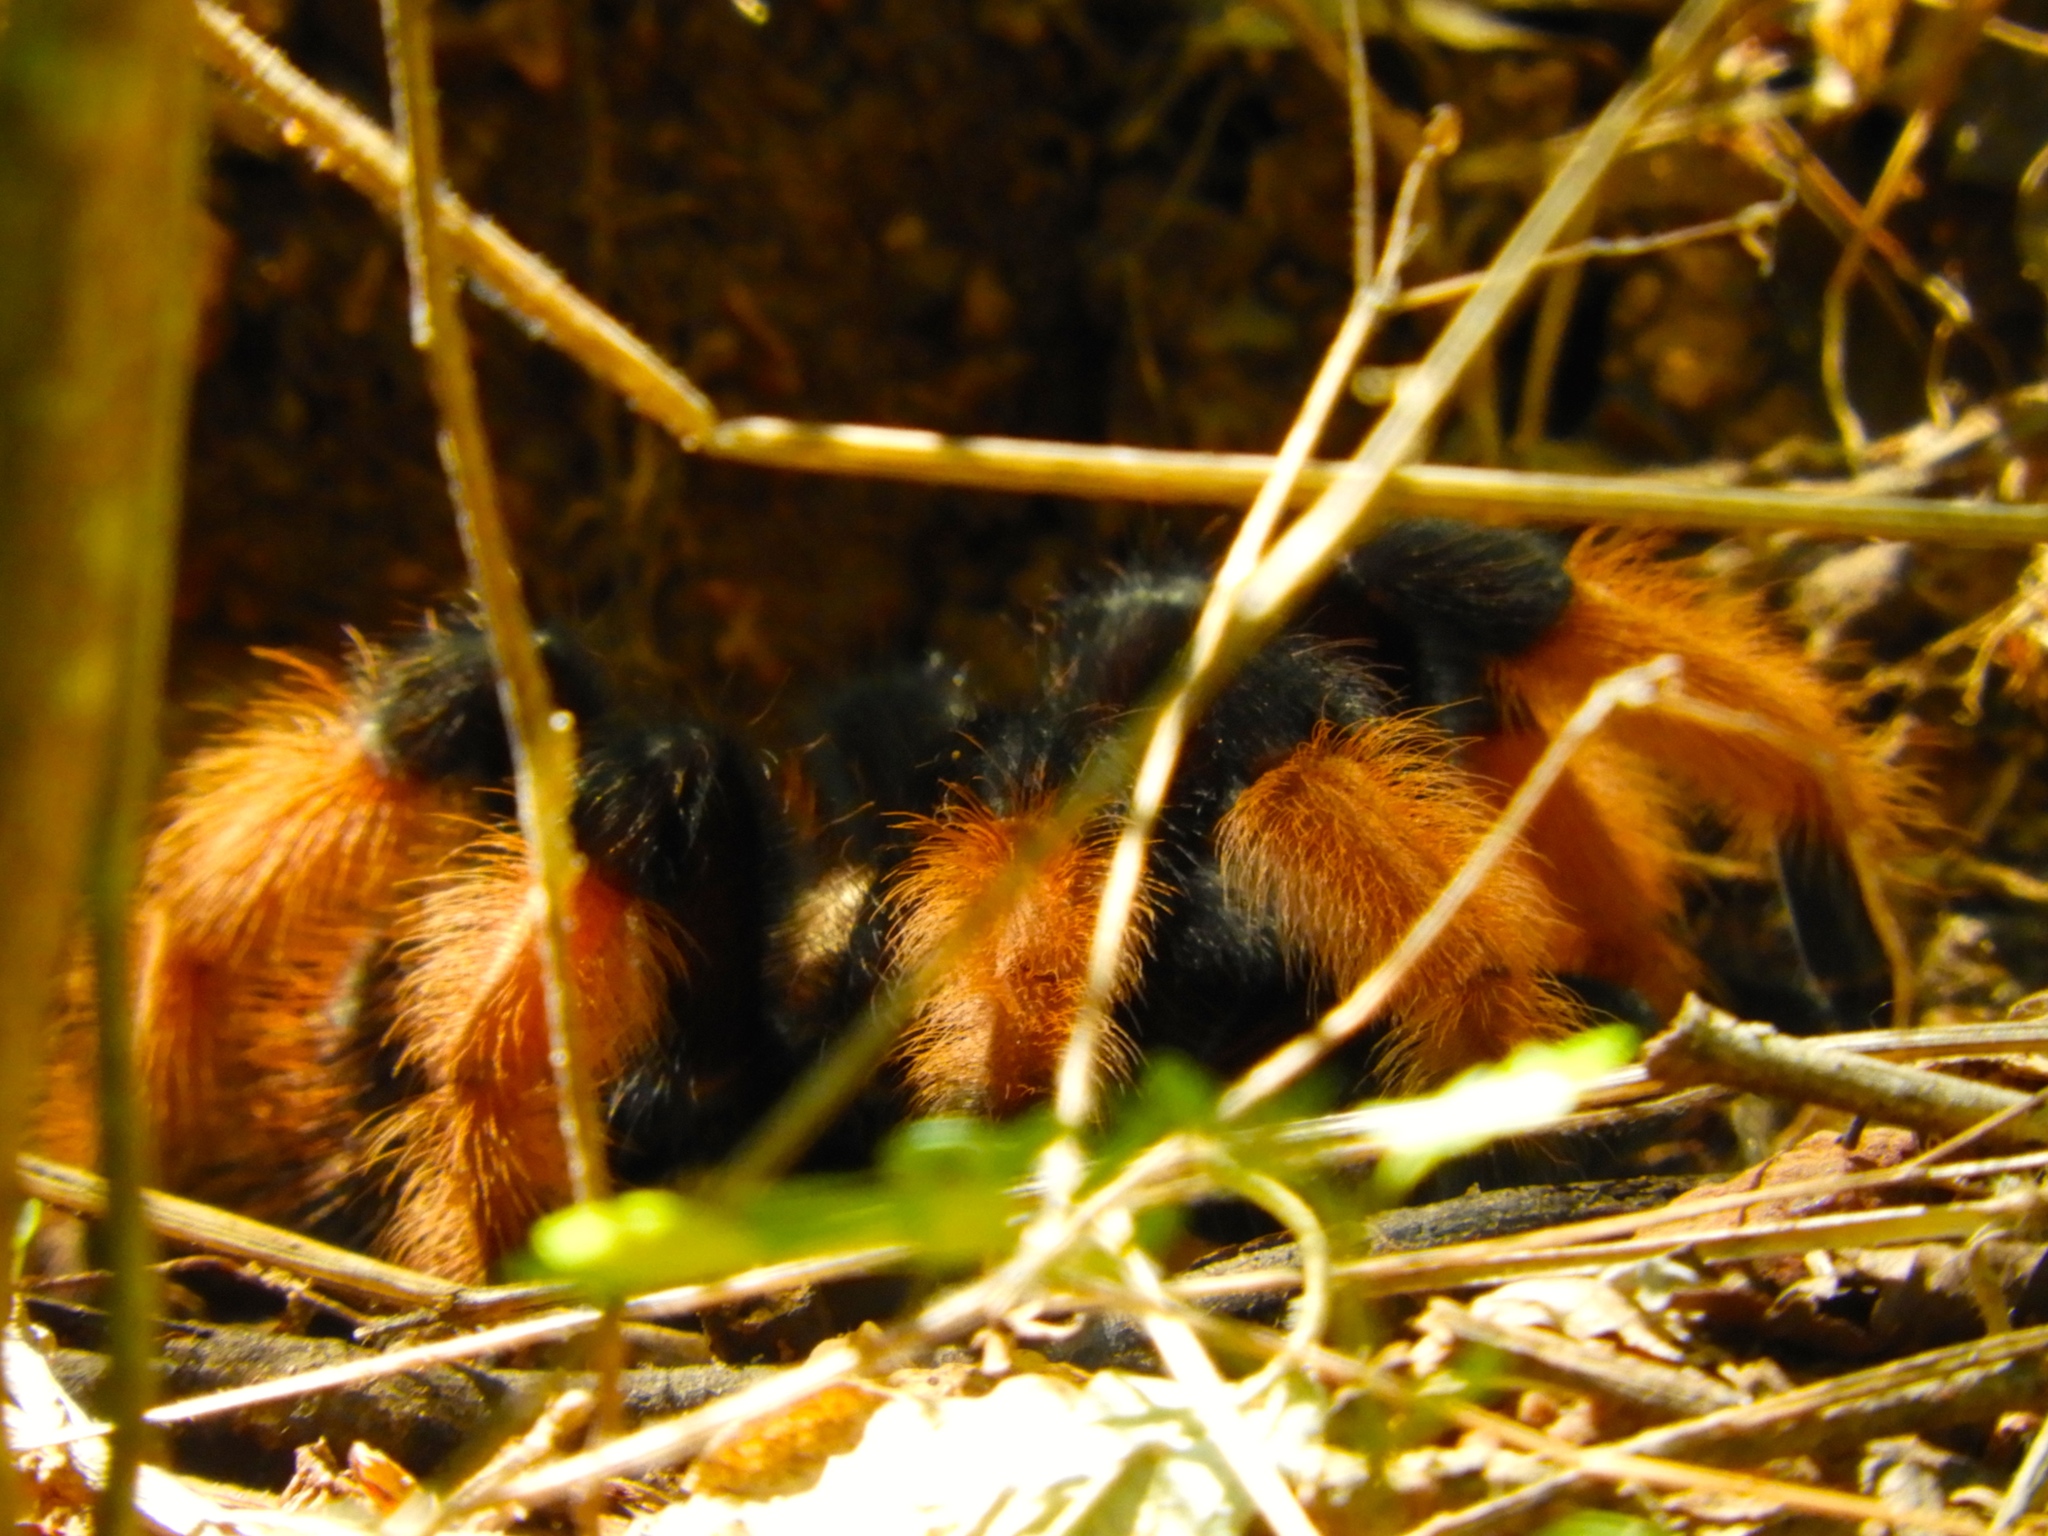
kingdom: Animalia
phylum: Arthropoda
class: Arachnida
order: Araneae
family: Theraphosidae
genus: Brachypelma
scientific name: Brachypelma emilia
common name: Mexican redleg
